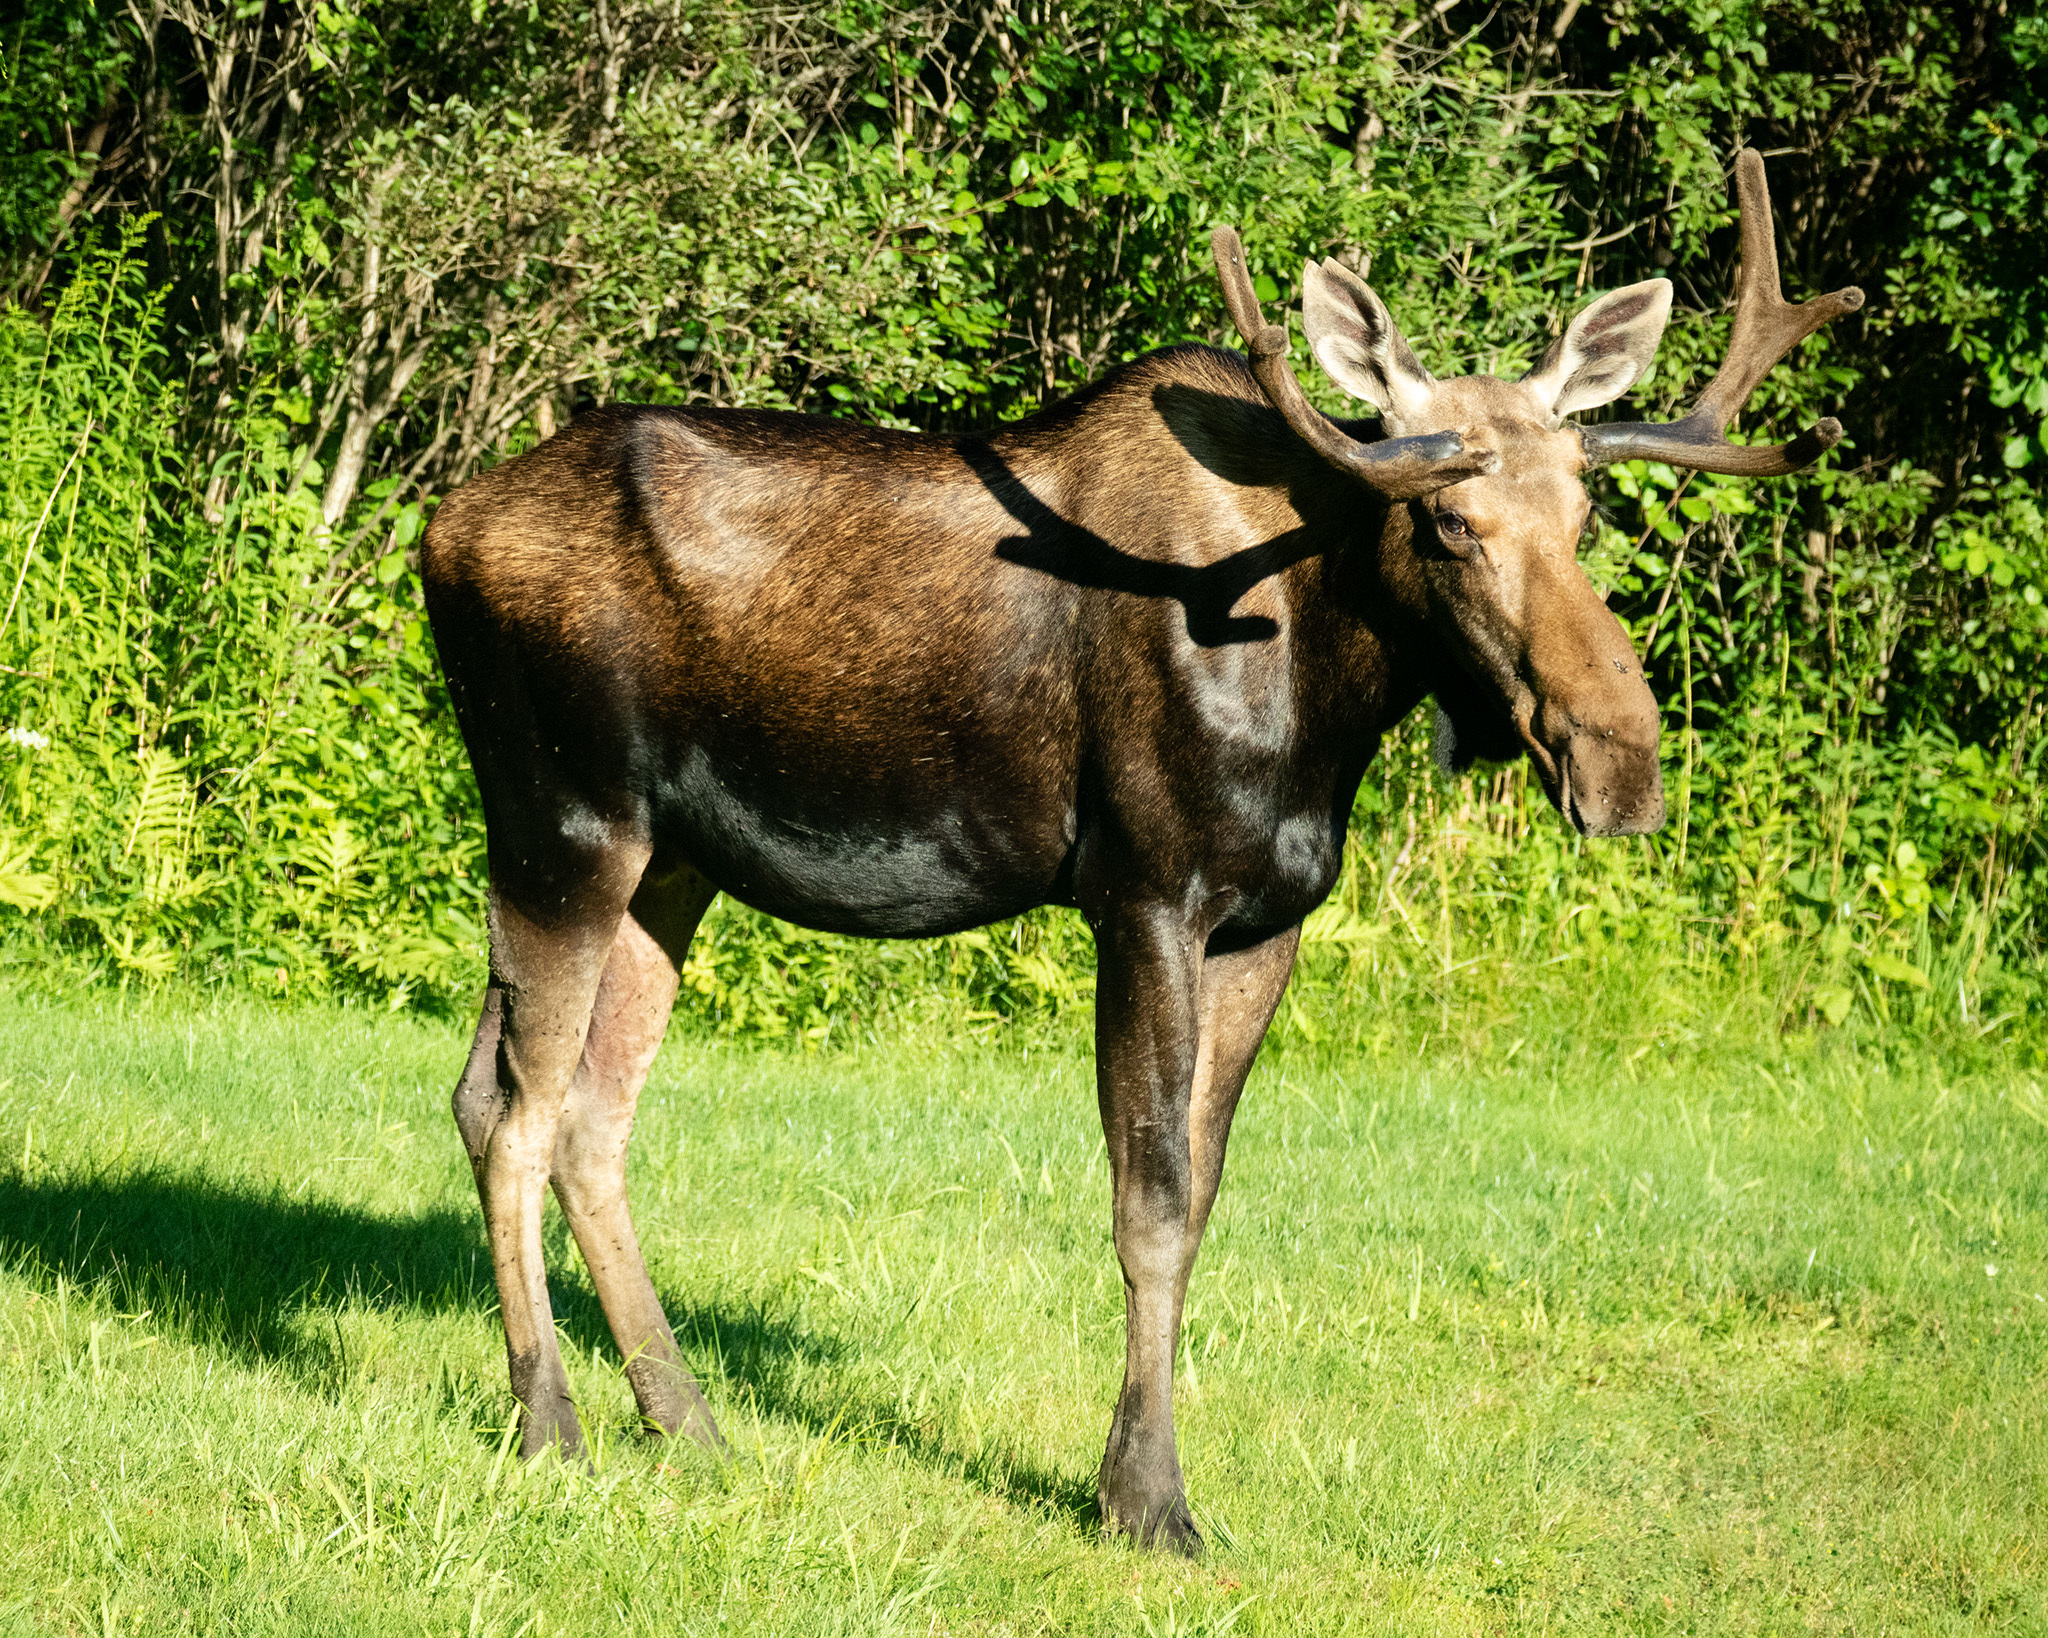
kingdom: Animalia
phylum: Chordata
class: Mammalia
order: Artiodactyla
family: Cervidae
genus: Alces
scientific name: Alces alces
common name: Moose
